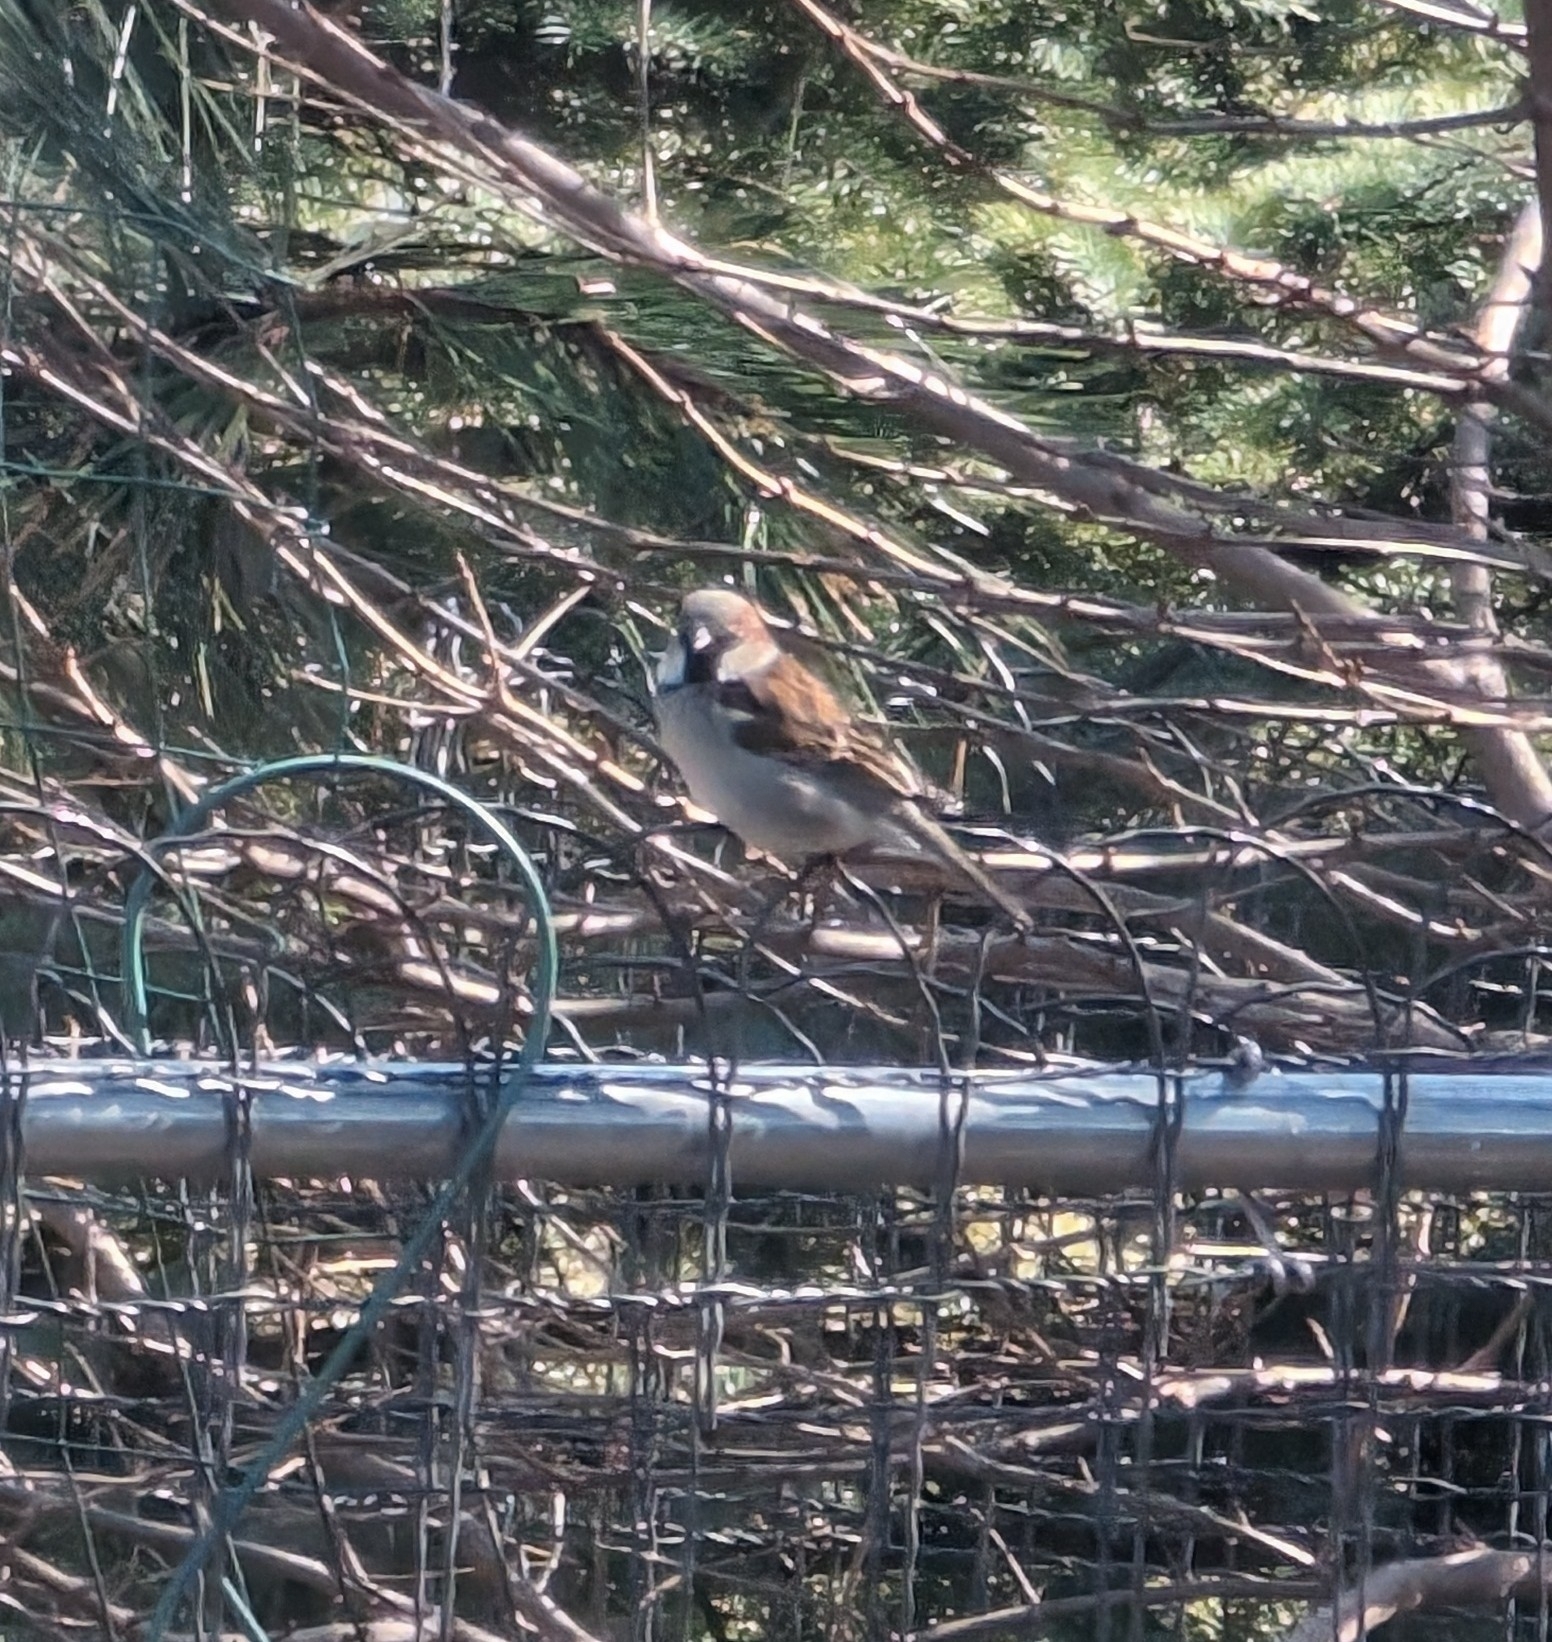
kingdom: Animalia
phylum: Chordata
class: Aves
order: Passeriformes
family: Passeridae
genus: Passer
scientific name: Passer domesticus
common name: House sparrow
